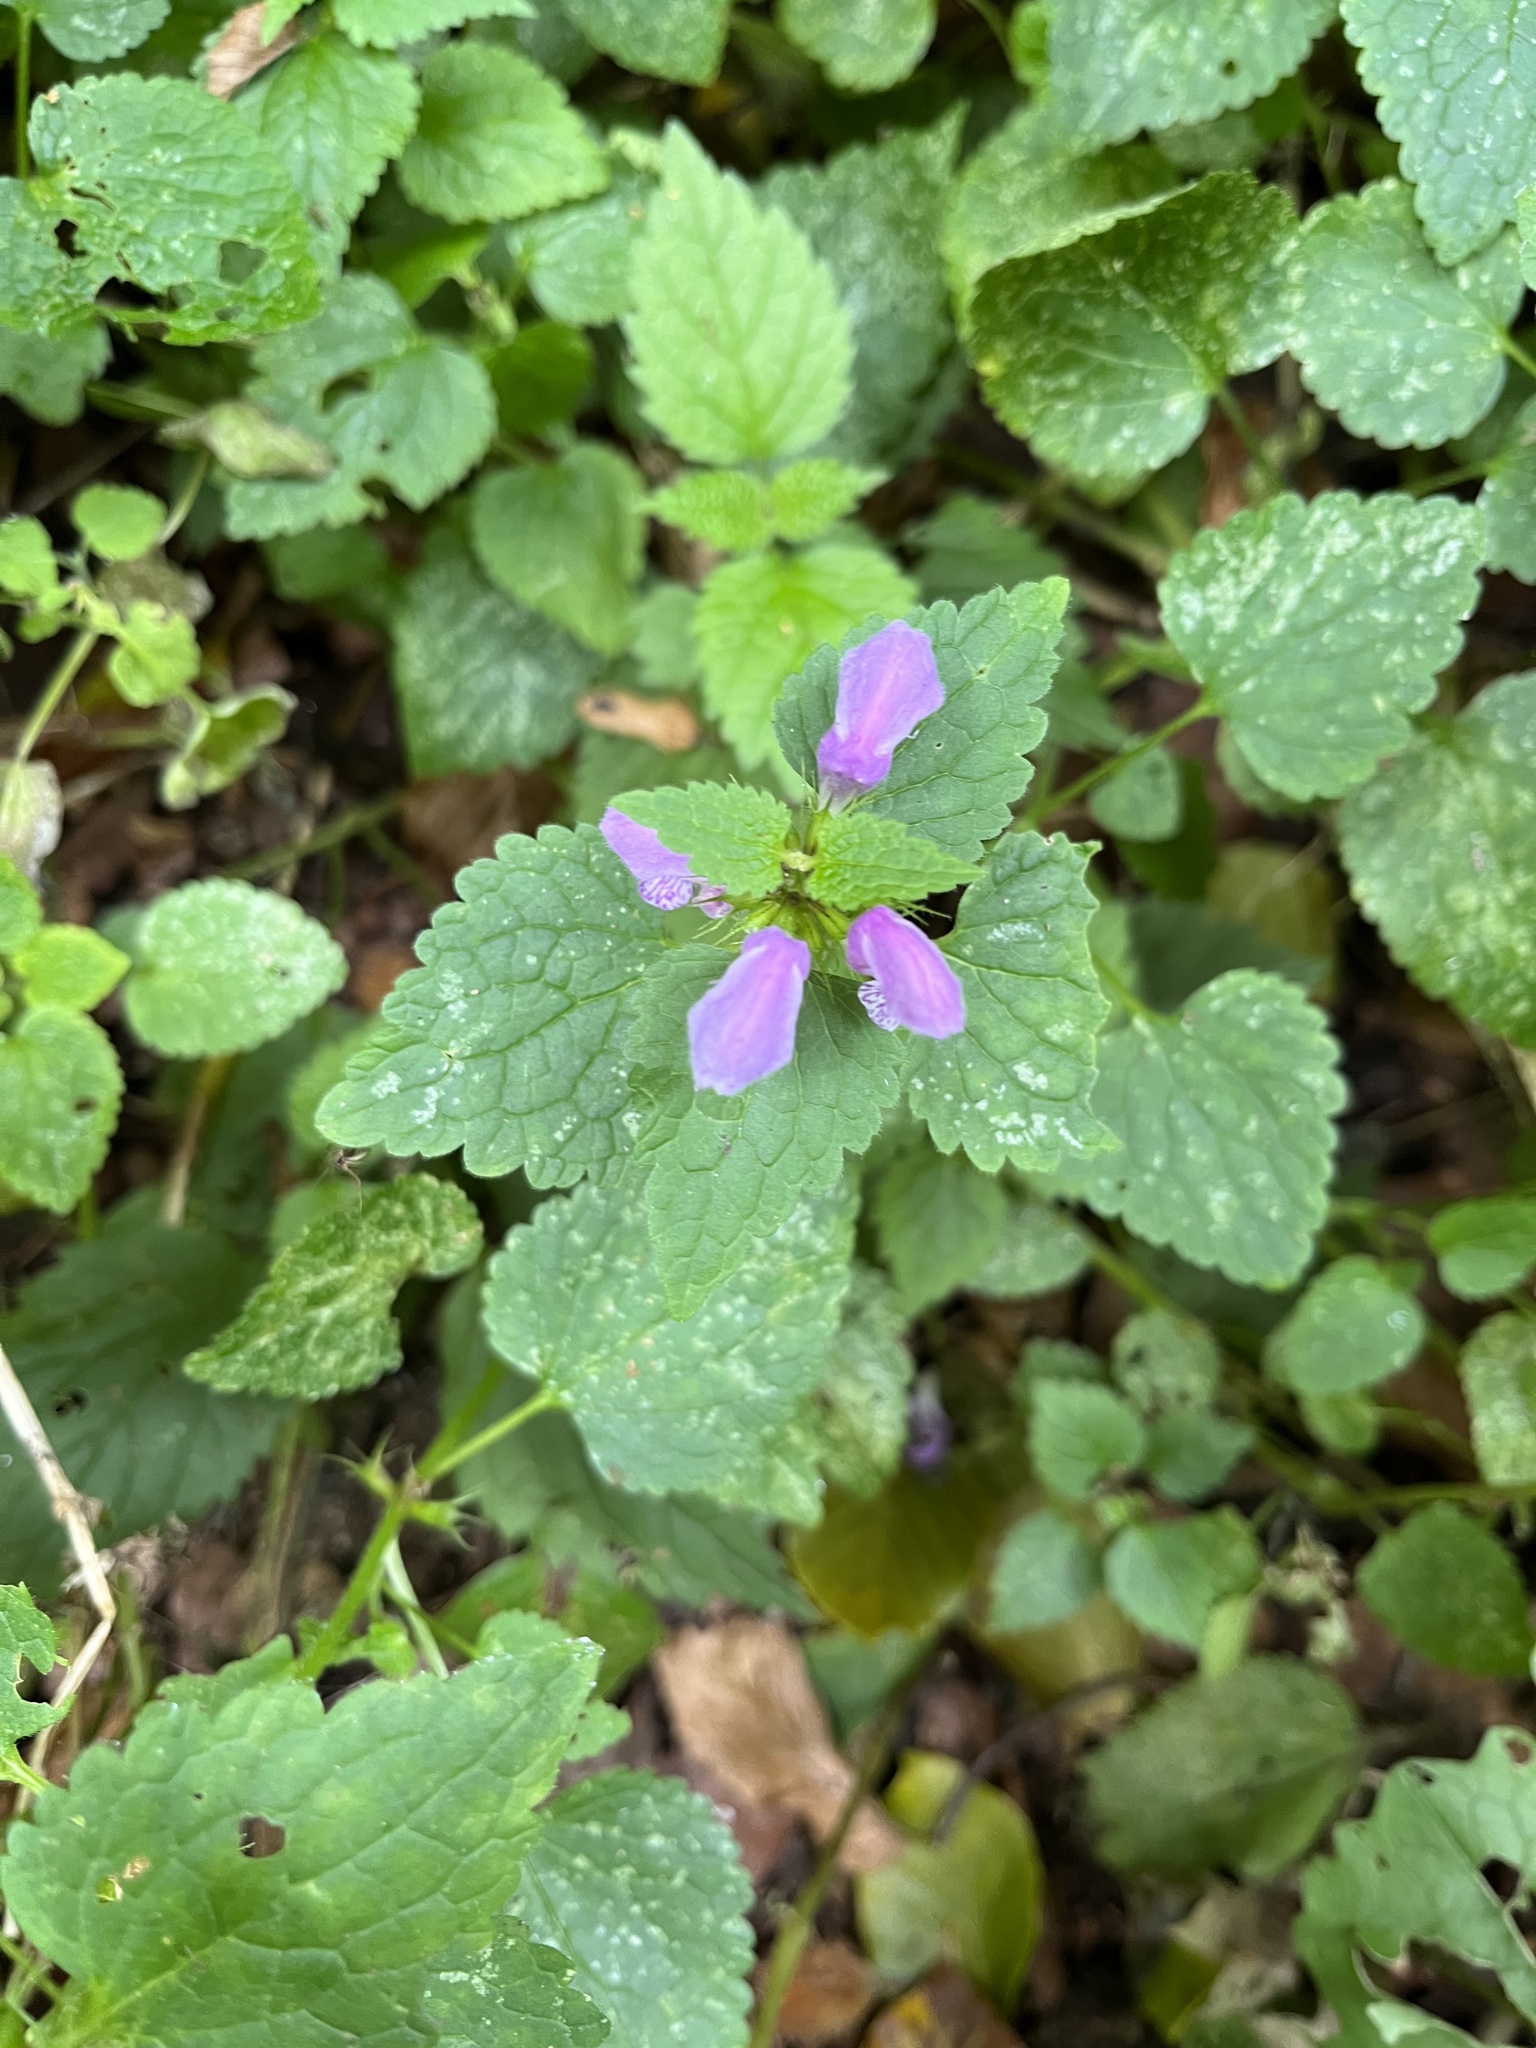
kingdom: Plantae
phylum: Tracheophyta
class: Magnoliopsida
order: Lamiales
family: Lamiaceae
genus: Lamium
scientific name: Lamium maculatum
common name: Spotted dead-nettle
